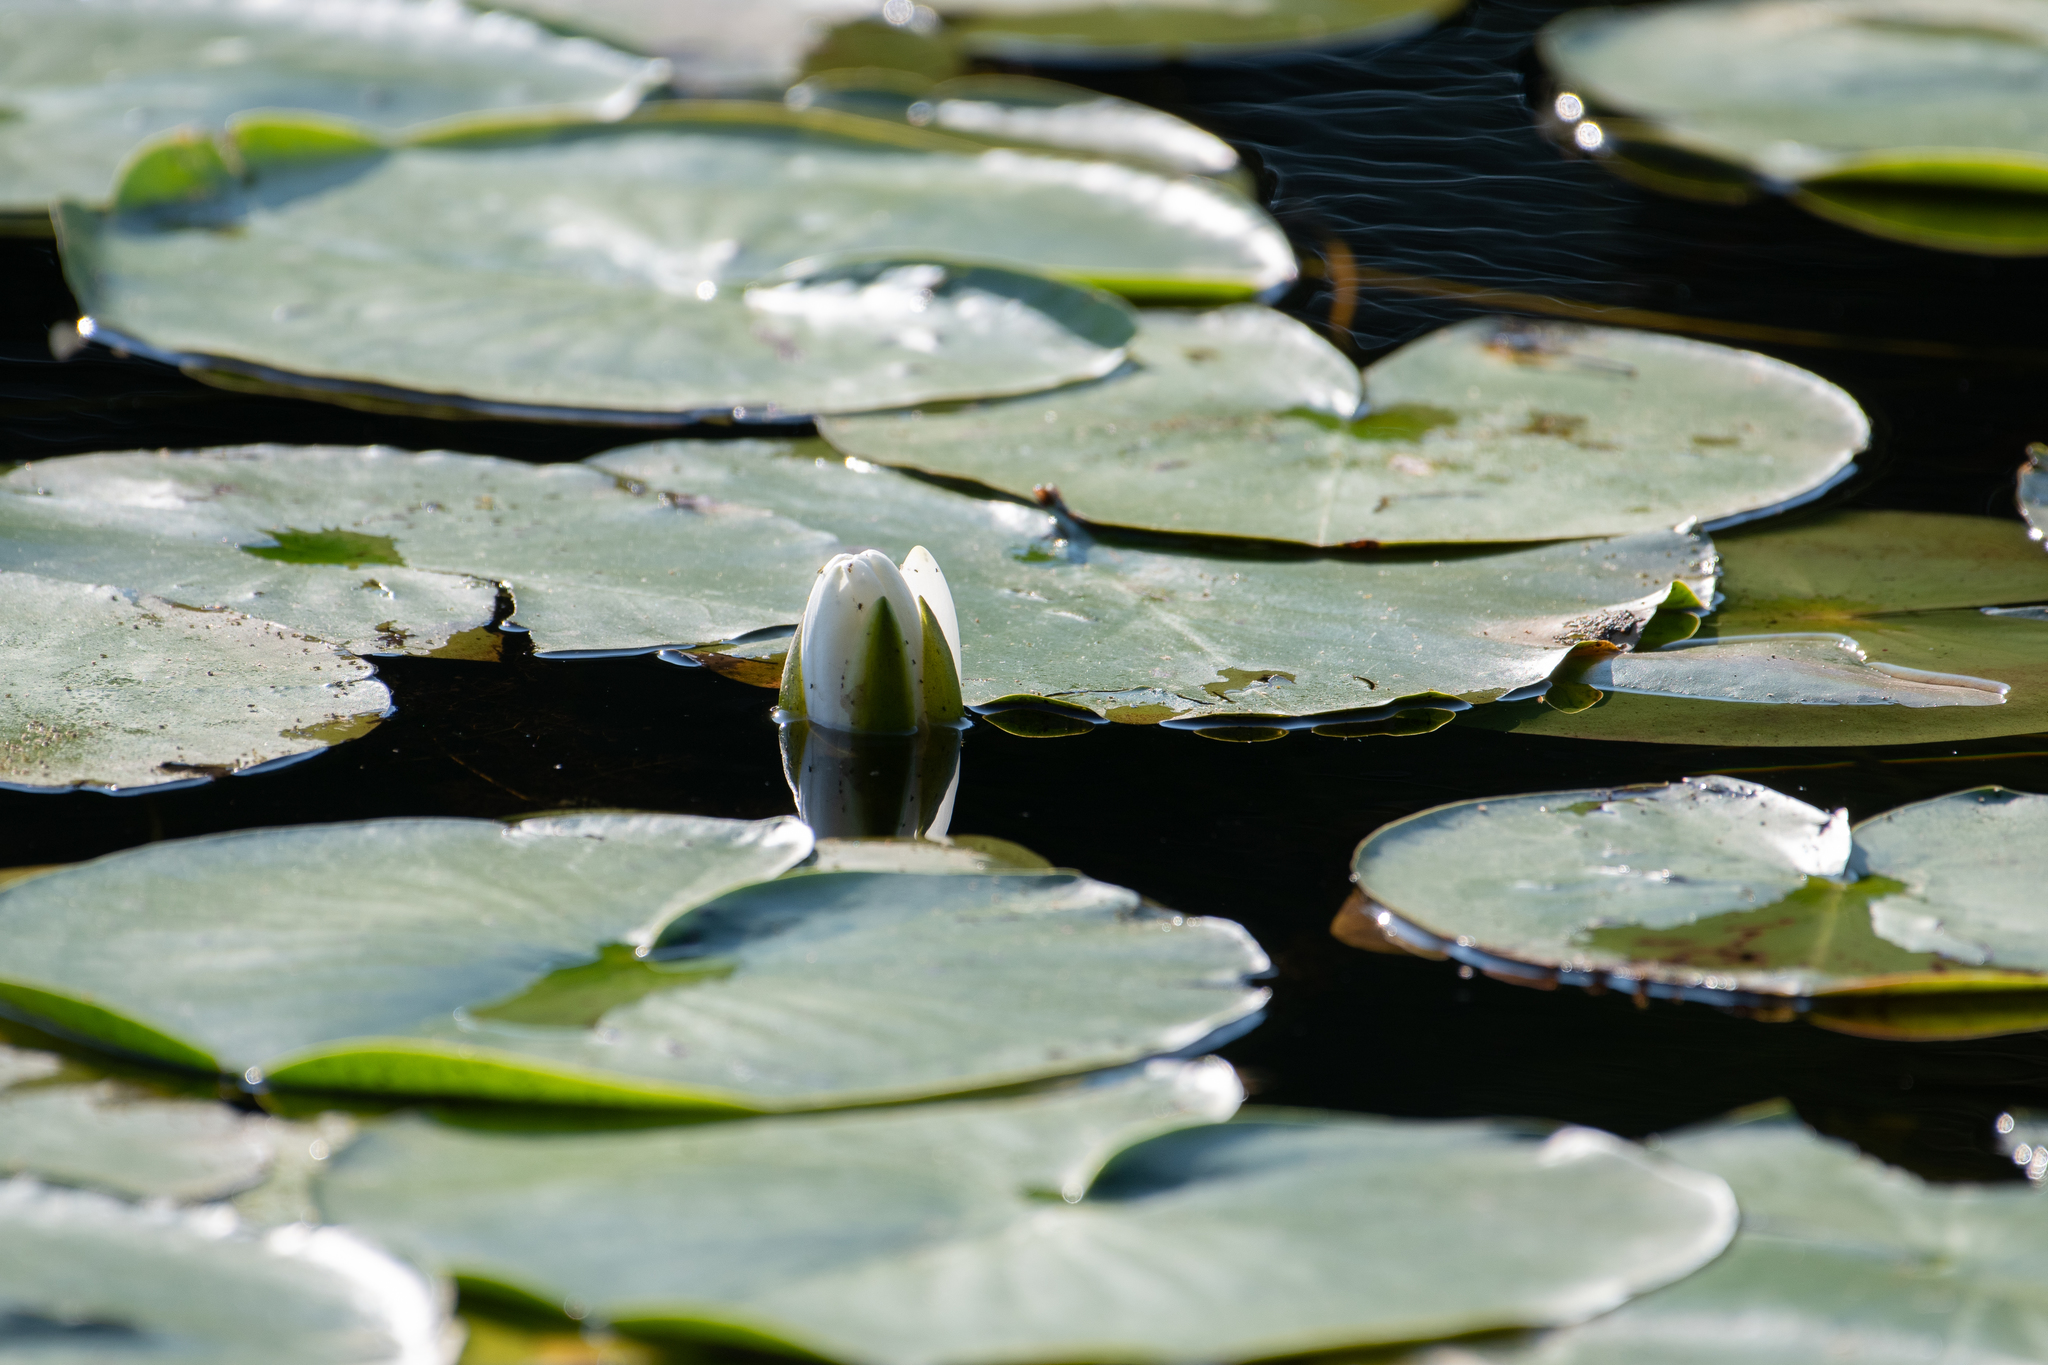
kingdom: Plantae
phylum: Tracheophyta
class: Magnoliopsida
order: Nymphaeales
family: Nymphaeaceae
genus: Nymphaea
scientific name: Nymphaea odorata
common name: Fragrant water-lily
